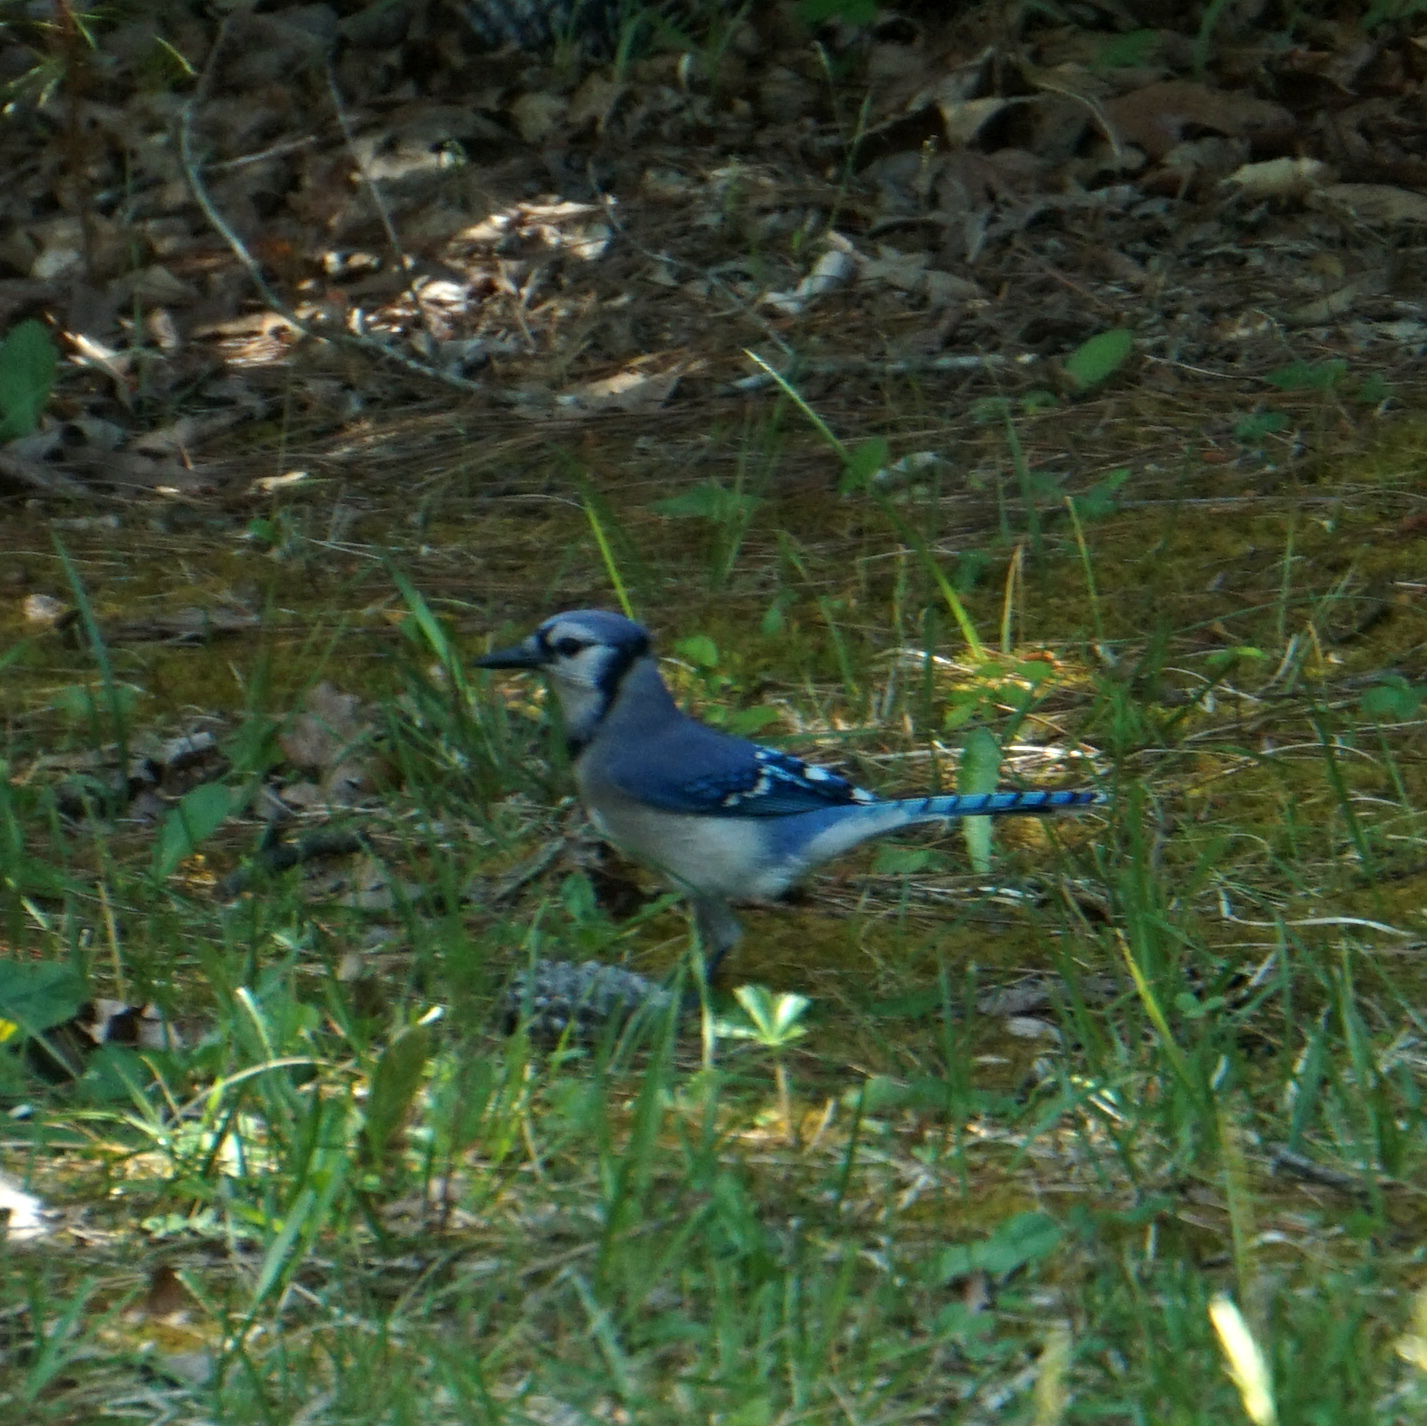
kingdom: Animalia
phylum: Chordata
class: Aves
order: Passeriformes
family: Corvidae
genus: Cyanocitta
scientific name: Cyanocitta cristata
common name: Blue jay
